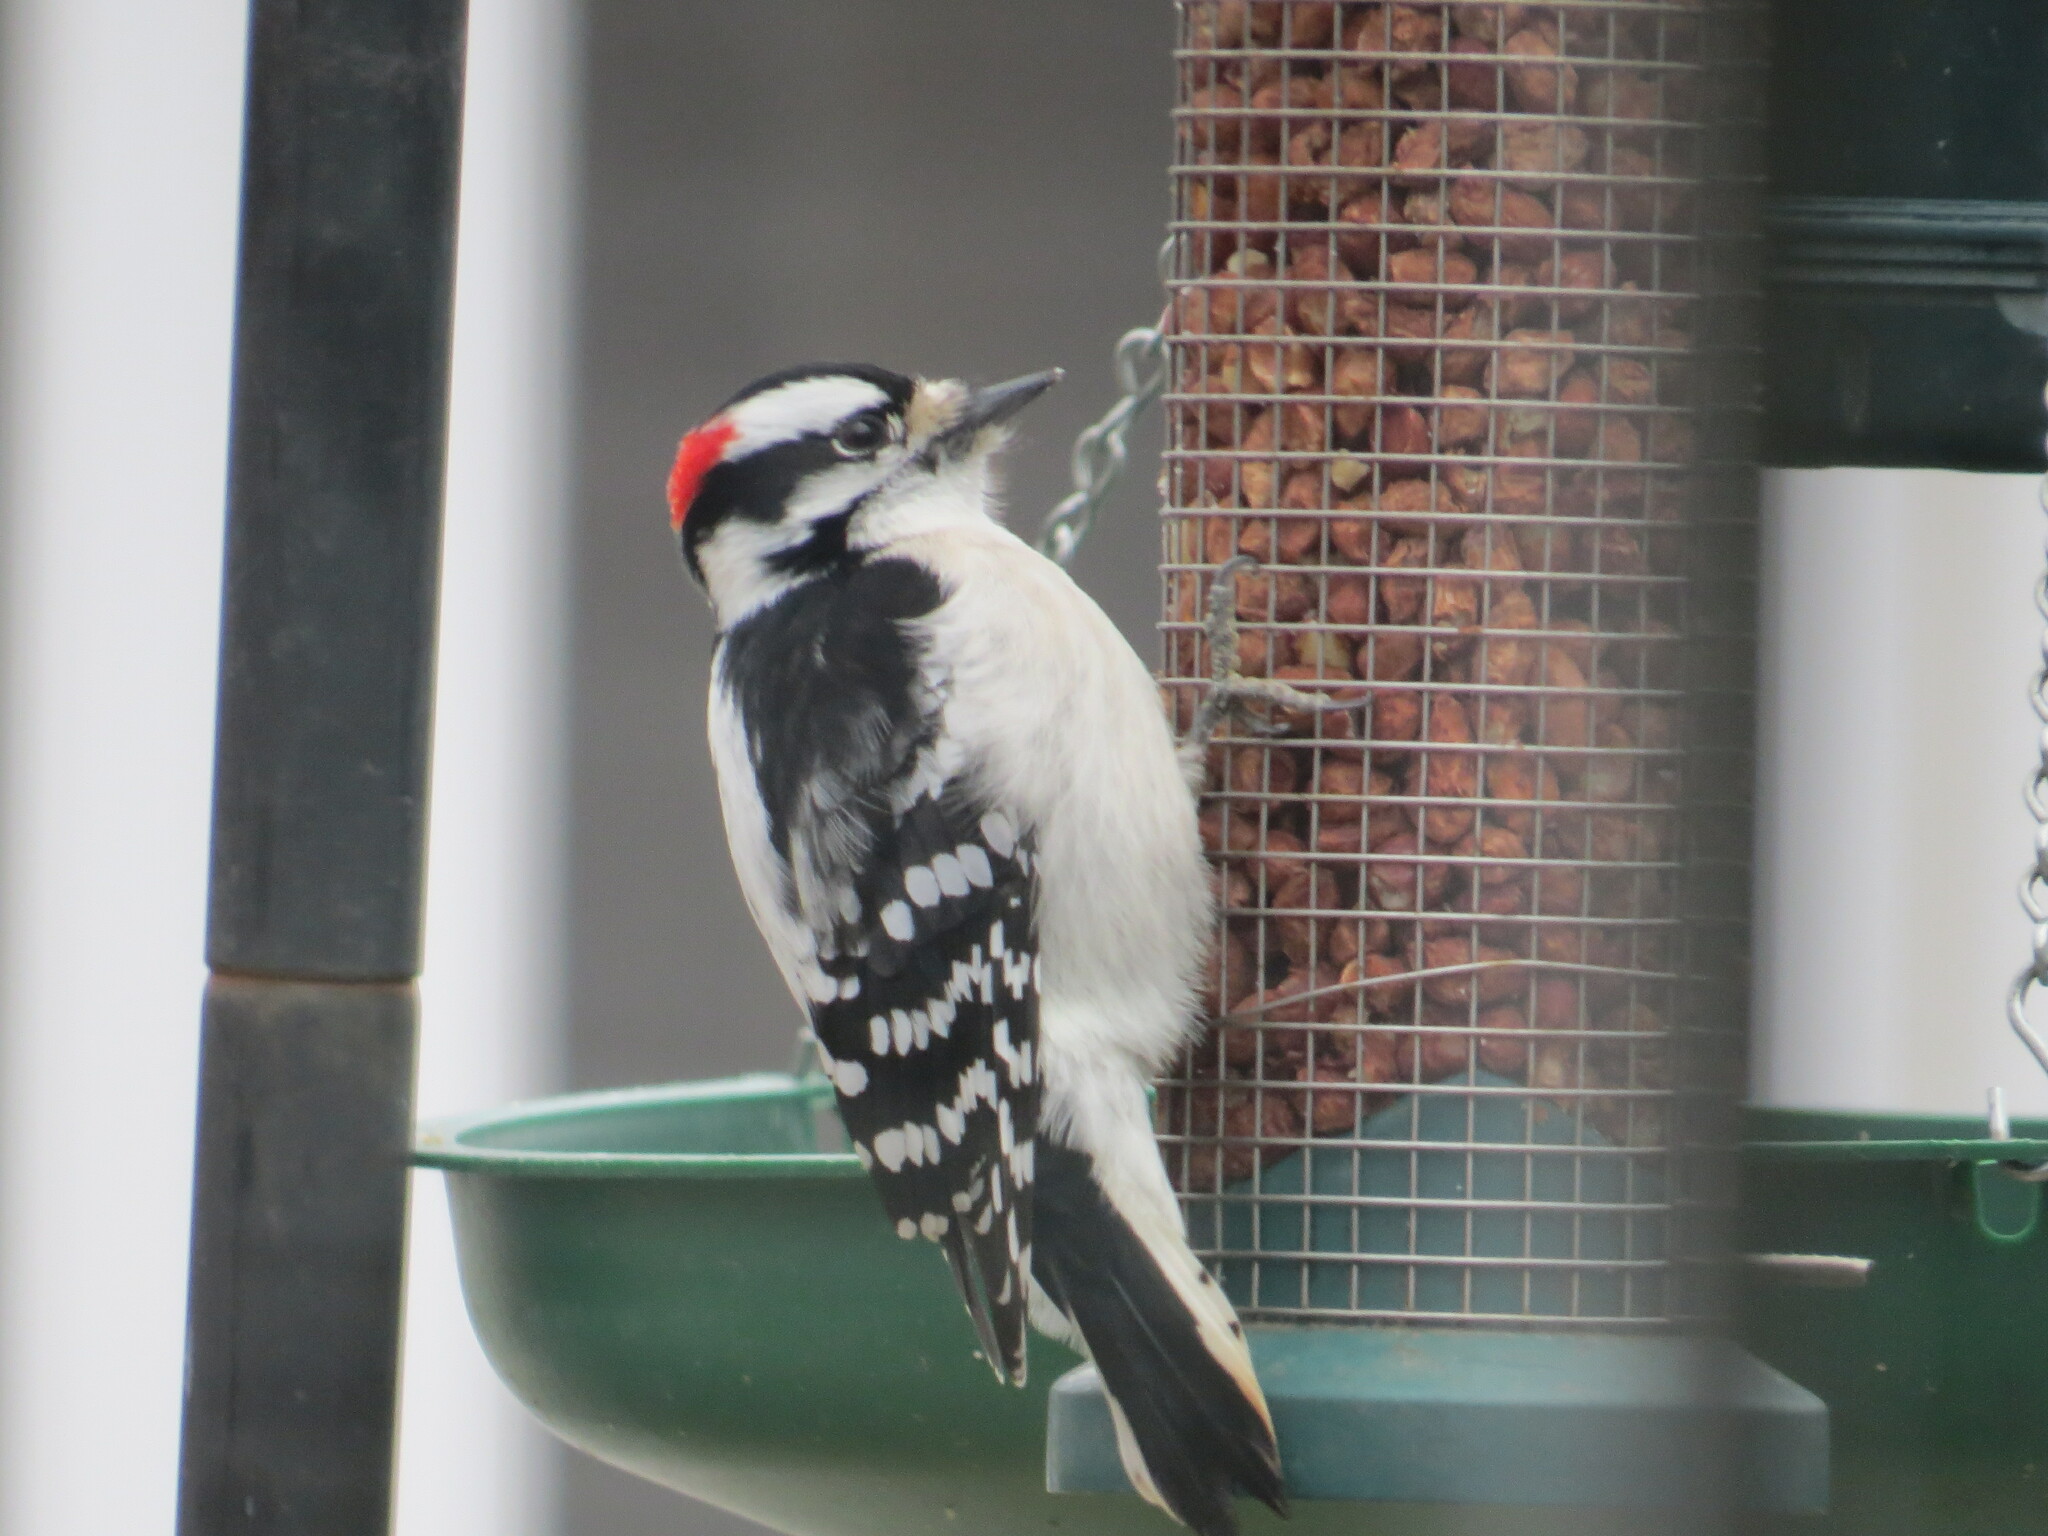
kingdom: Animalia
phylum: Chordata
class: Aves
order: Piciformes
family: Picidae
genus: Dryobates
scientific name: Dryobates pubescens
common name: Downy woodpecker
